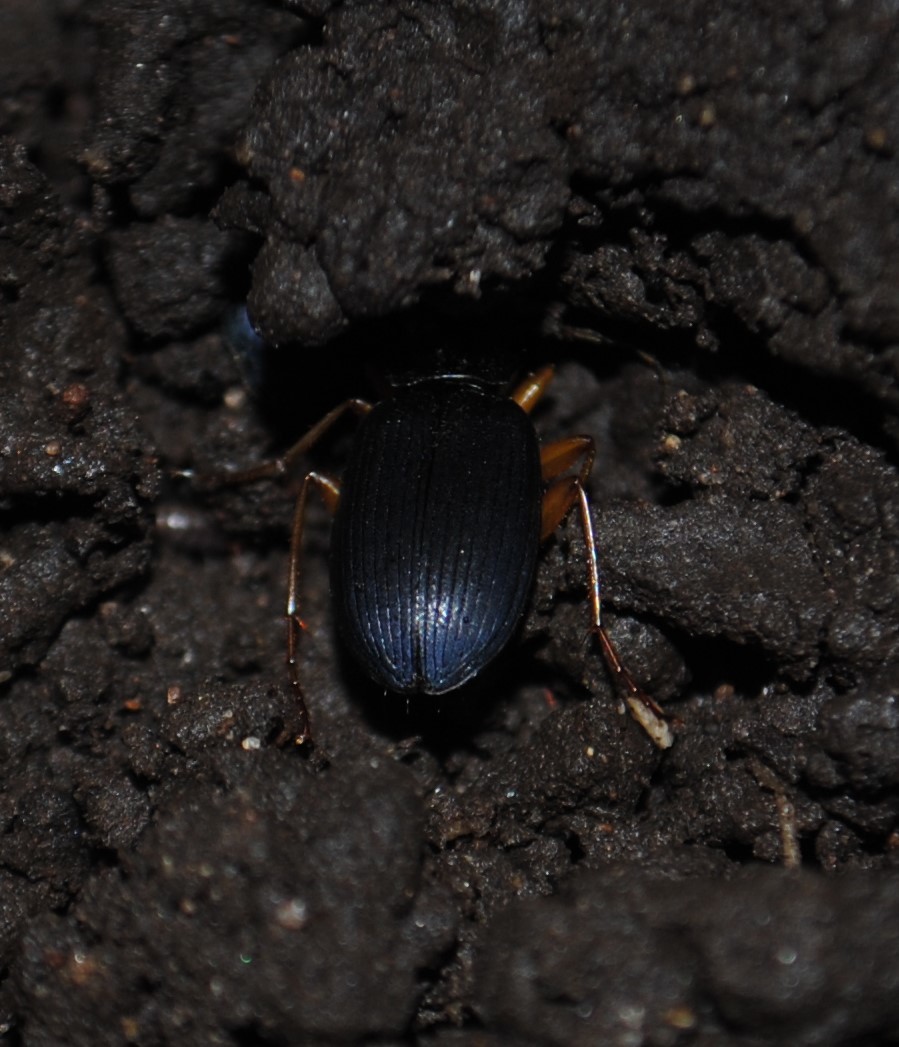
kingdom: Animalia
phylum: Arthropoda
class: Insecta
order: Coleoptera
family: Carabidae
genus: Chlaenius
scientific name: Chlaenius tricolor
